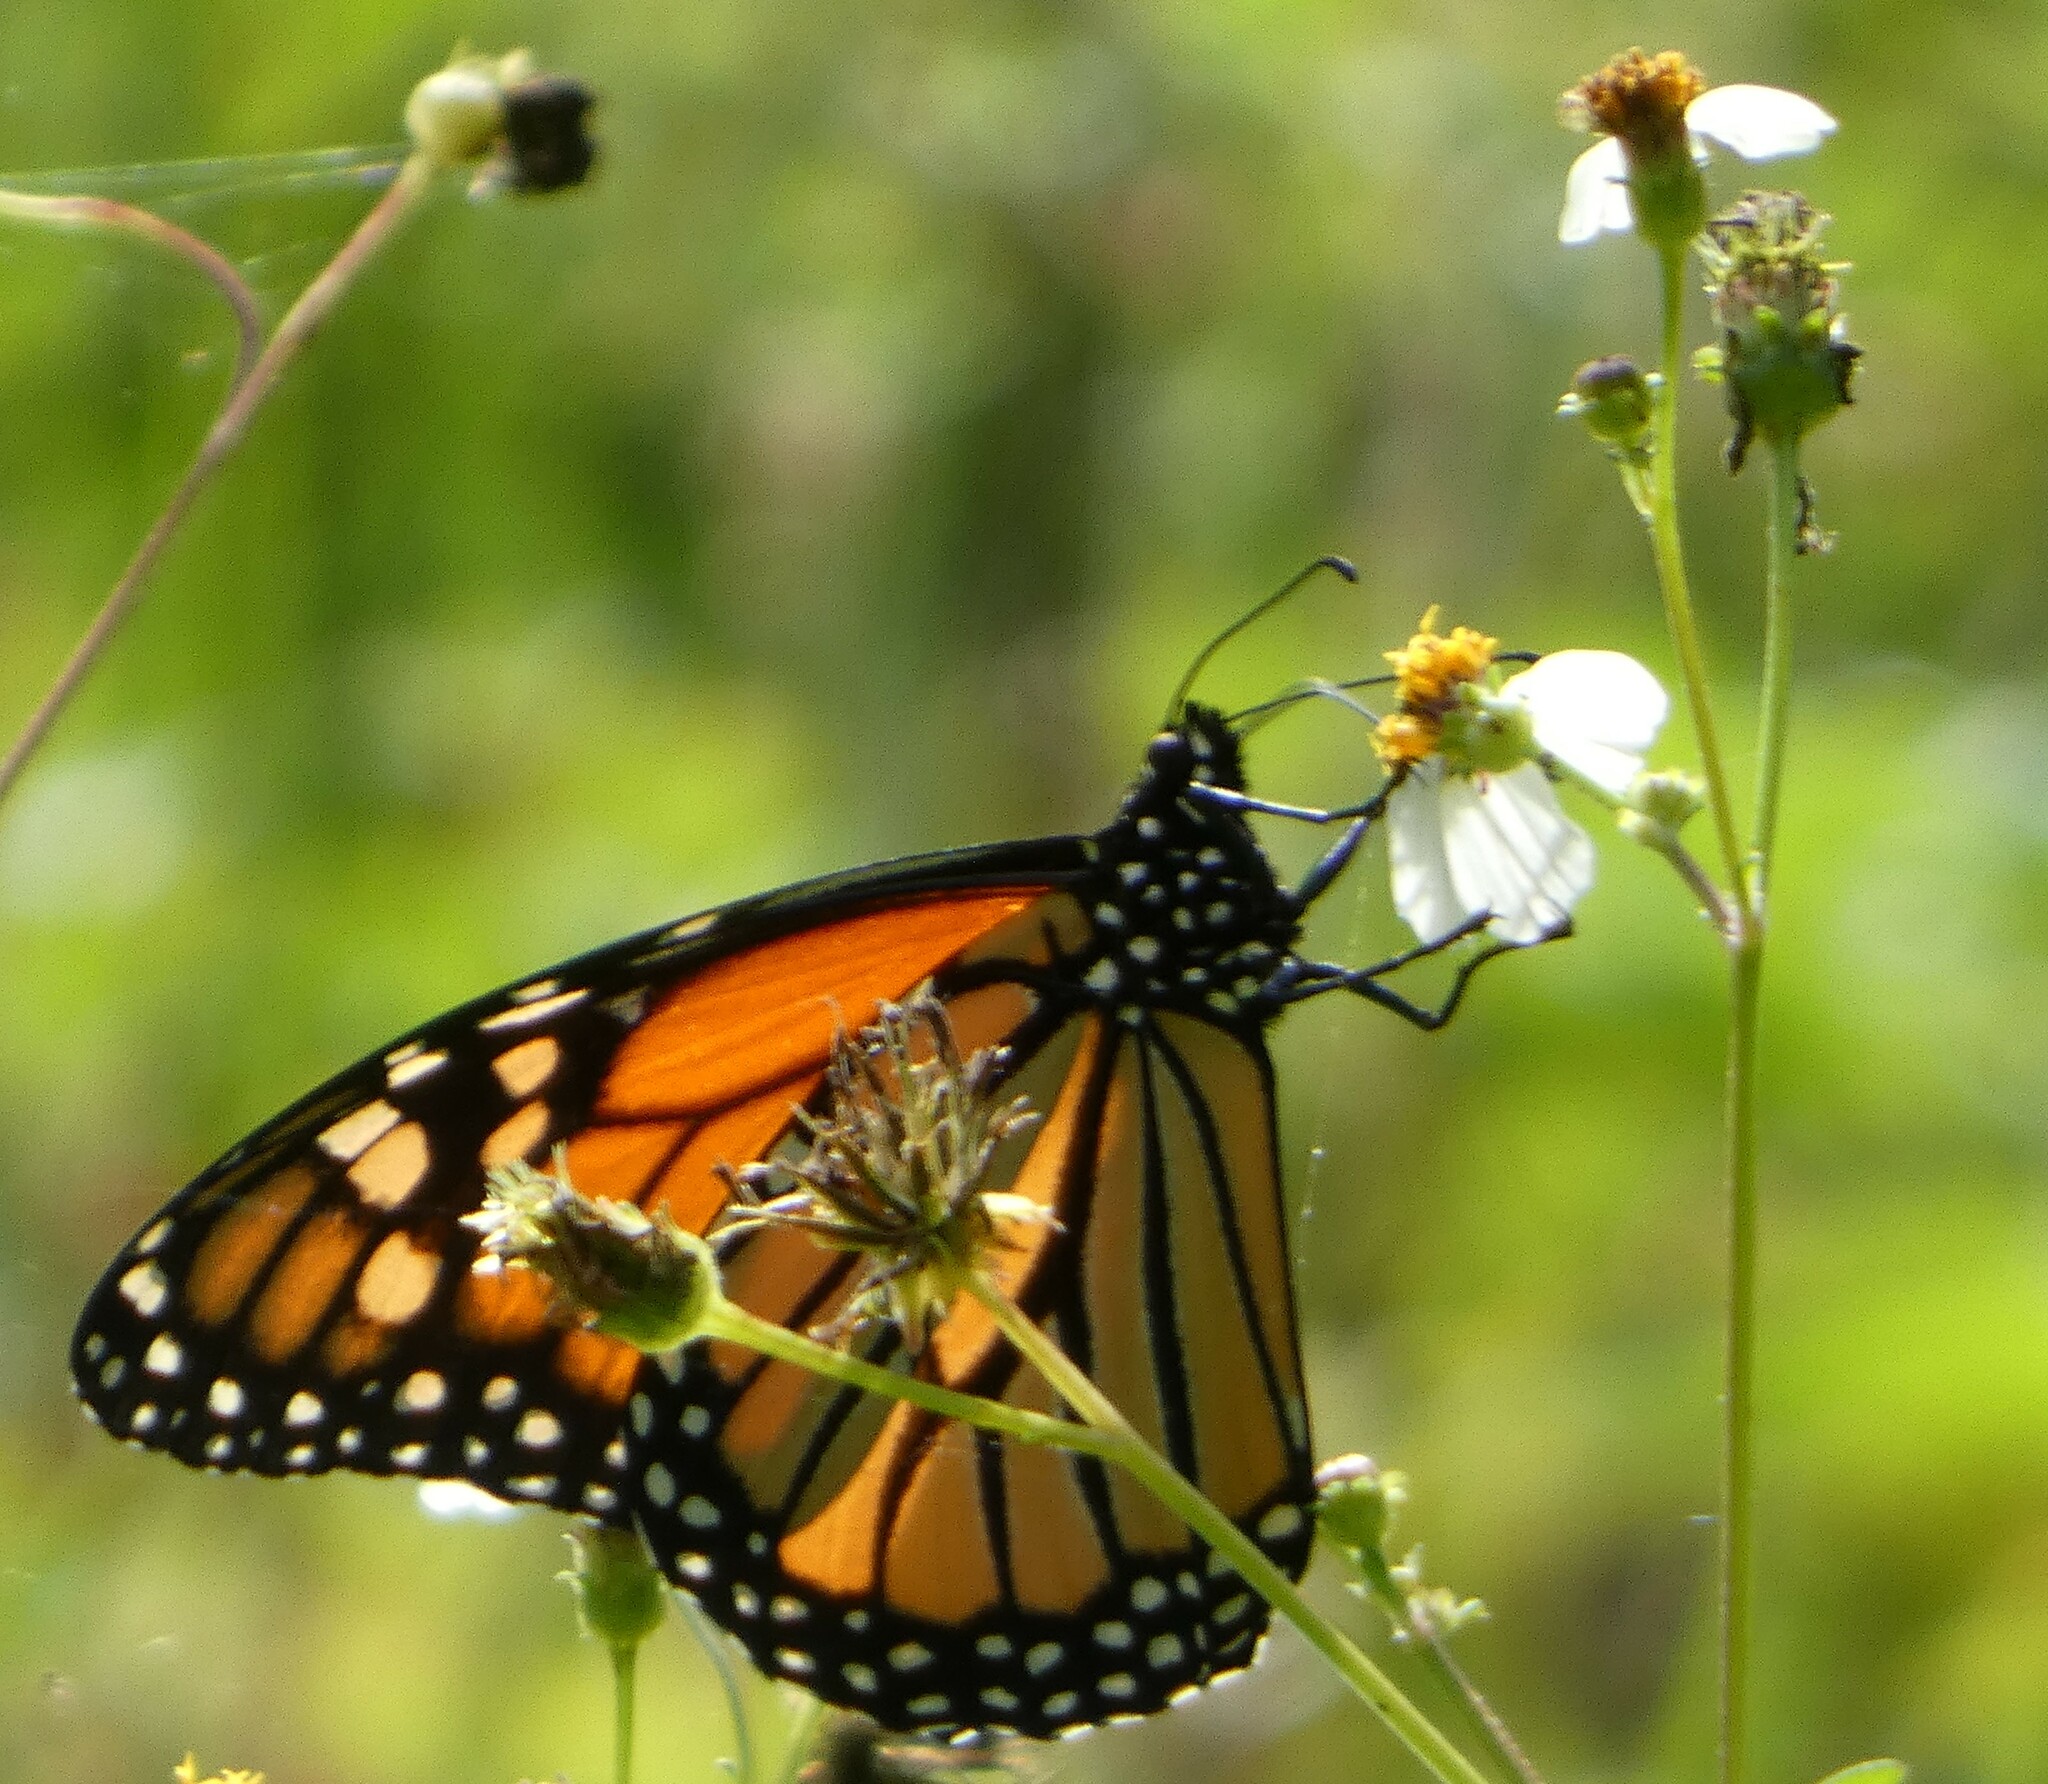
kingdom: Animalia
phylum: Arthropoda
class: Insecta
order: Lepidoptera
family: Nymphalidae
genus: Danaus
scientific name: Danaus plexippus
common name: Monarch
